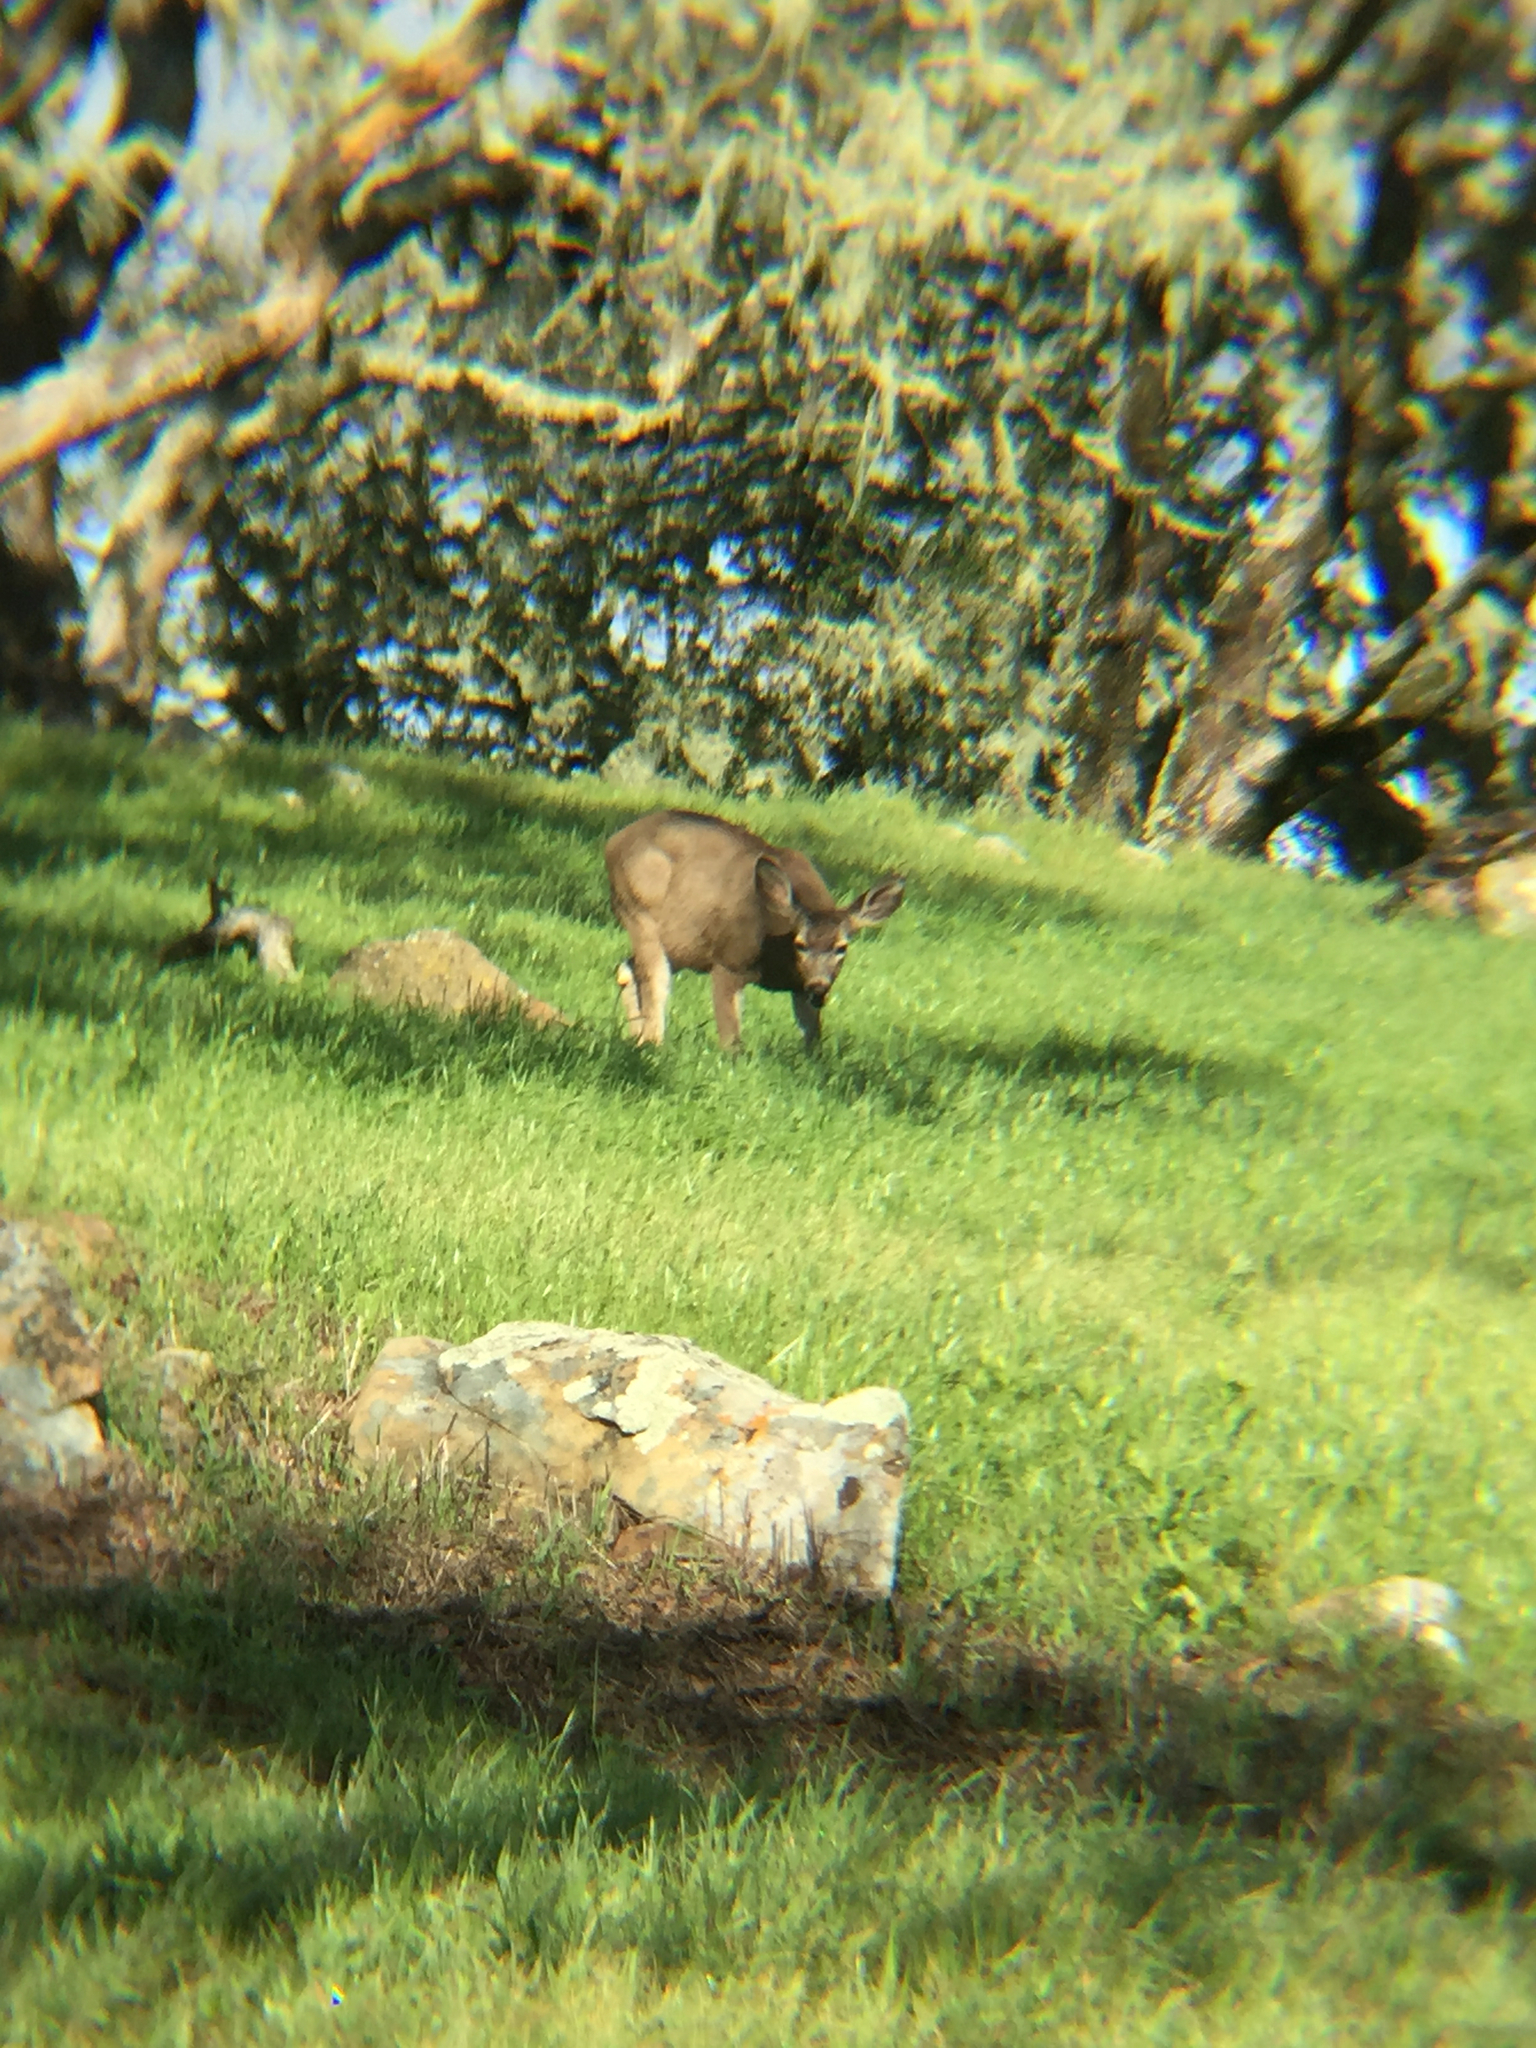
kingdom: Animalia
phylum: Chordata
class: Mammalia
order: Artiodactyla
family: Cervidae
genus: Odocoileus
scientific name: Odocoileus hemionus
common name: Mule deer
